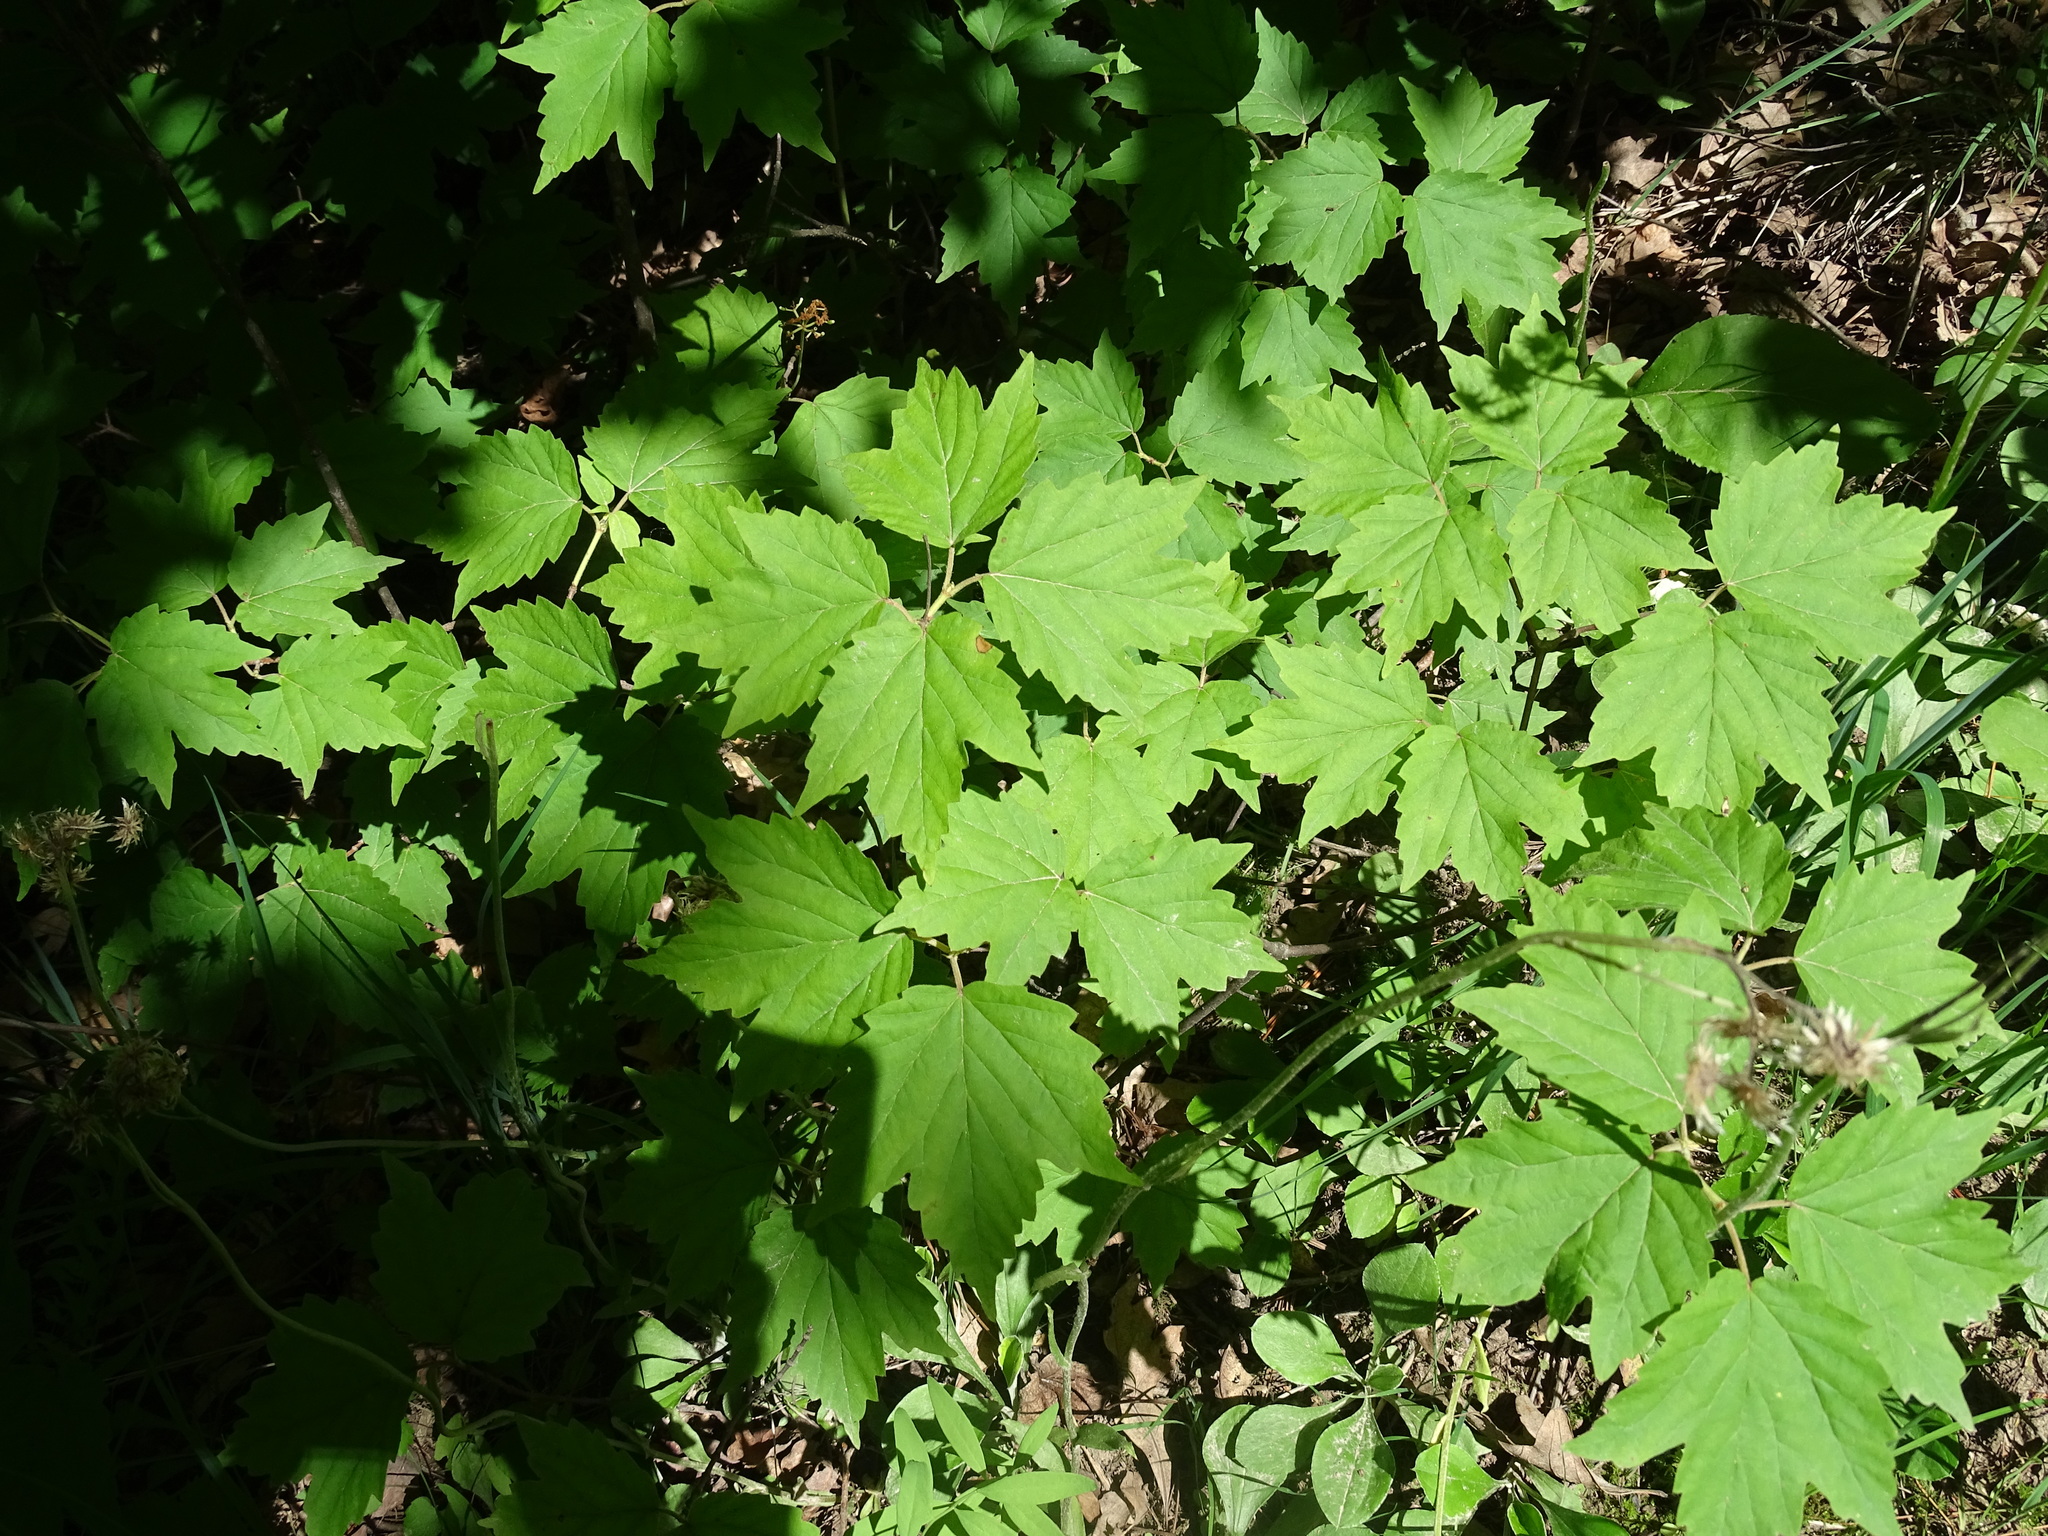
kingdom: Plantae
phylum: Tracheophyta
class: Magnoliopsida
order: Dipsacales
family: Viburnaceae
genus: Viburnum
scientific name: Viburnum acerifolium
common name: Dockmackie
